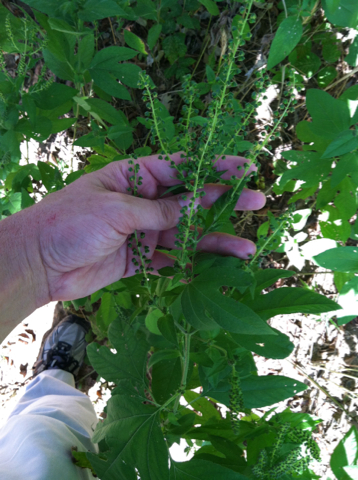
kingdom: Plantae
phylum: Tracheophyta
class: Magnoliopsida
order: Asterales
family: Asteraceae
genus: Ambrosia
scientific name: Ambrosia trifida
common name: Giant ragweed
